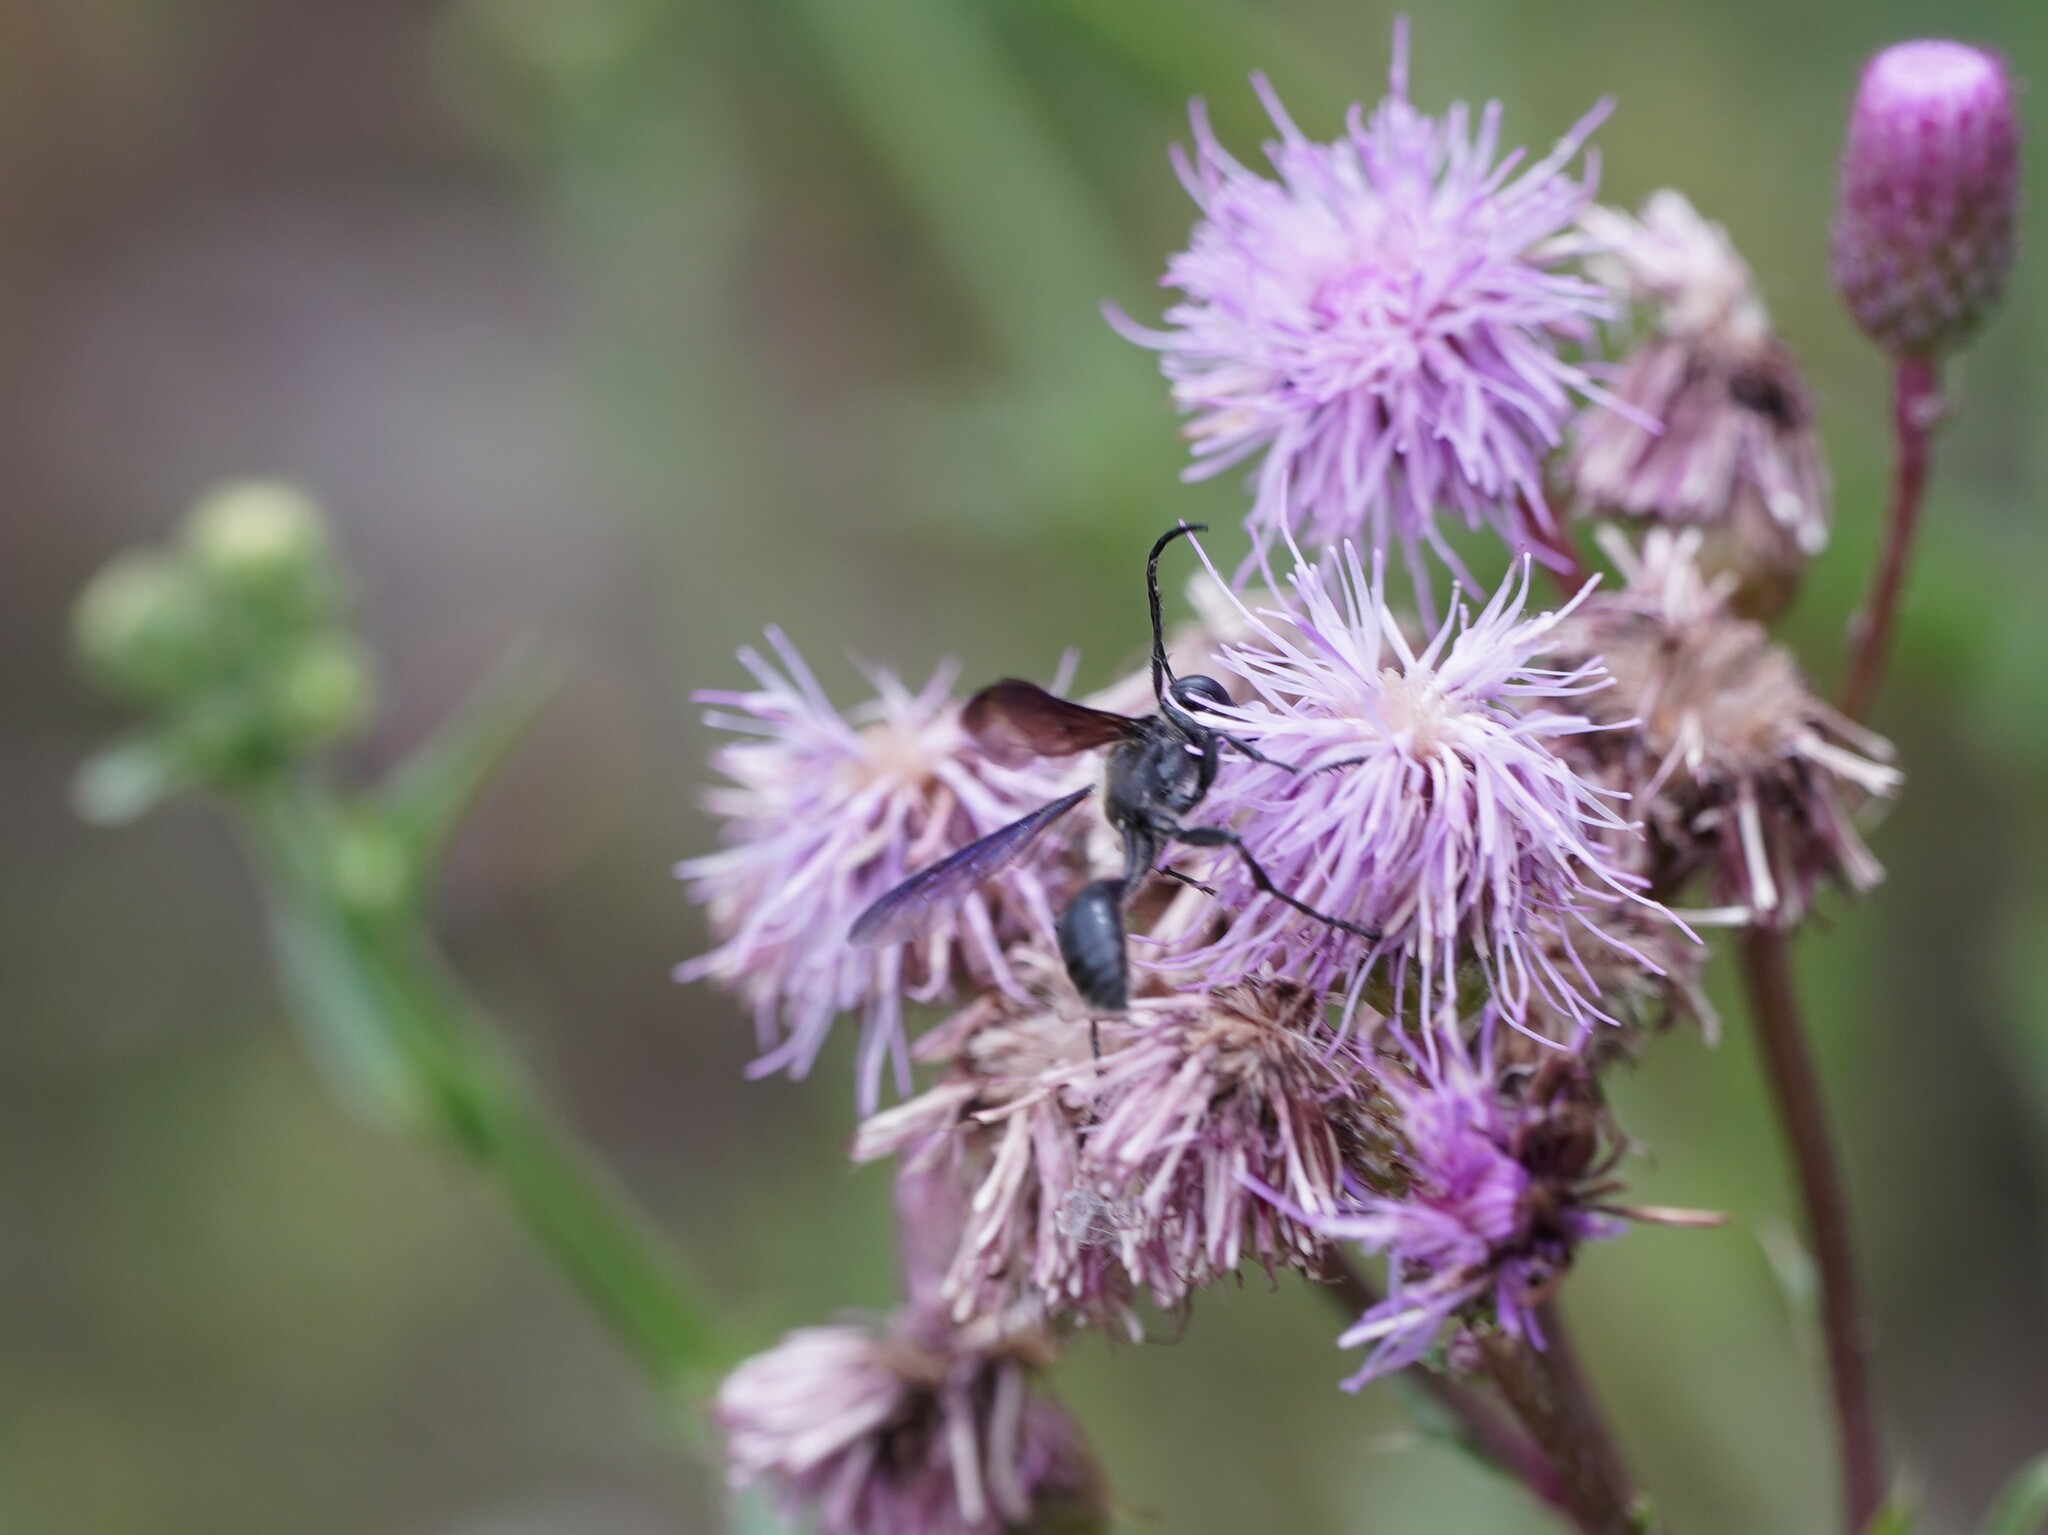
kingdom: Animalia
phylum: Arthropoda
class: Insecta
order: Hymenoptera
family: Sphecidae
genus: Isodontia
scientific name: Isodontia mexicana
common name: Mud dauber
